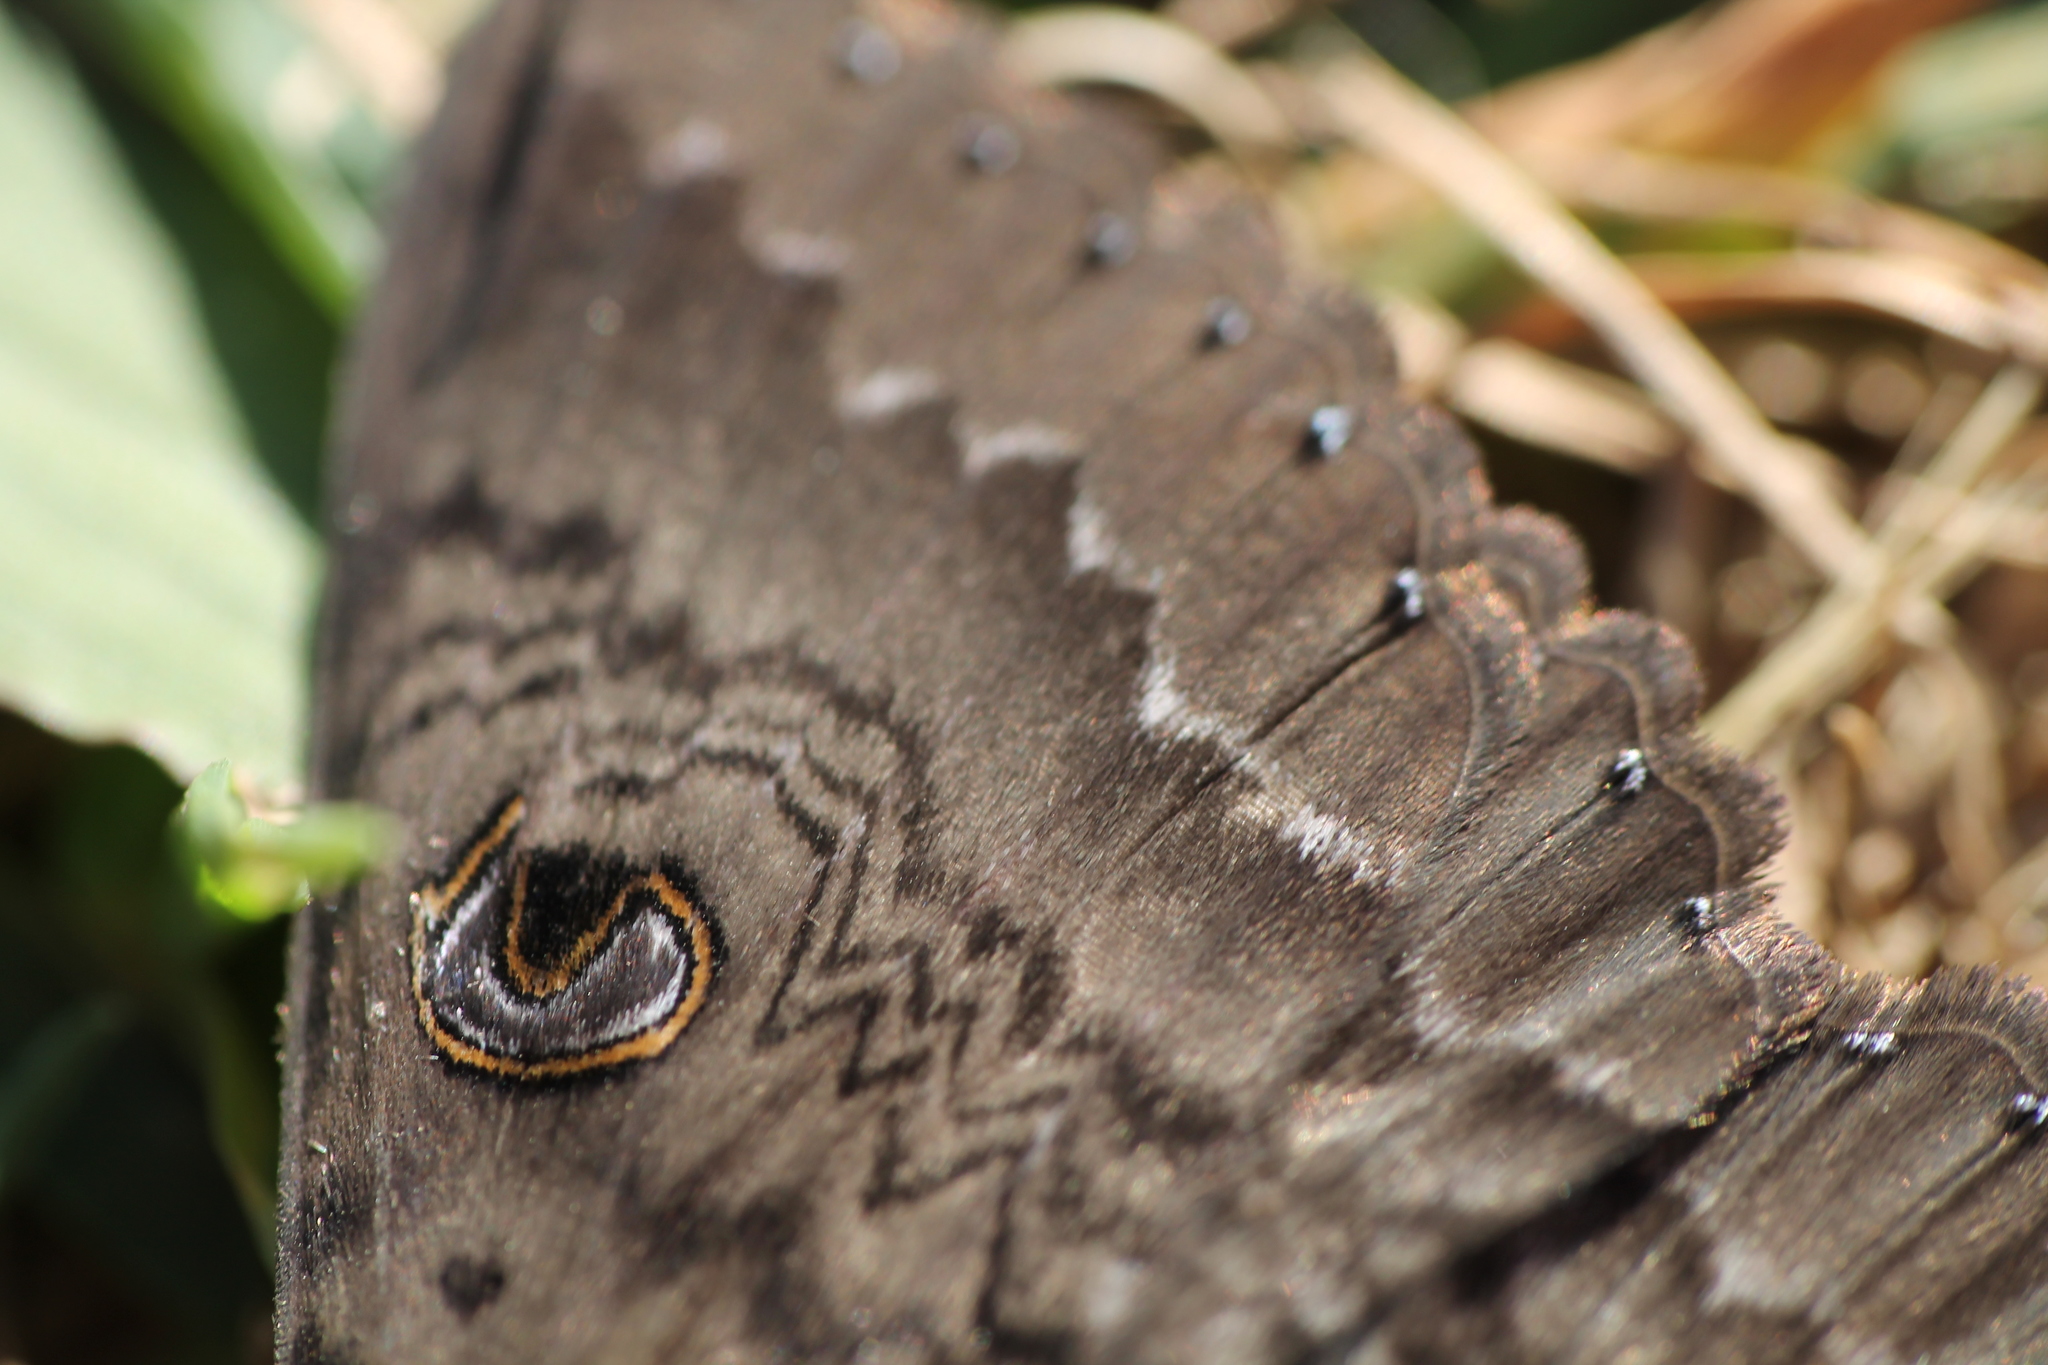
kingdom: Animalia
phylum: Arthropoda
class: Insecta
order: Lepidoptera
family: Erebidae
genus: Dasypodia
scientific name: Dasypodia cymatodes
